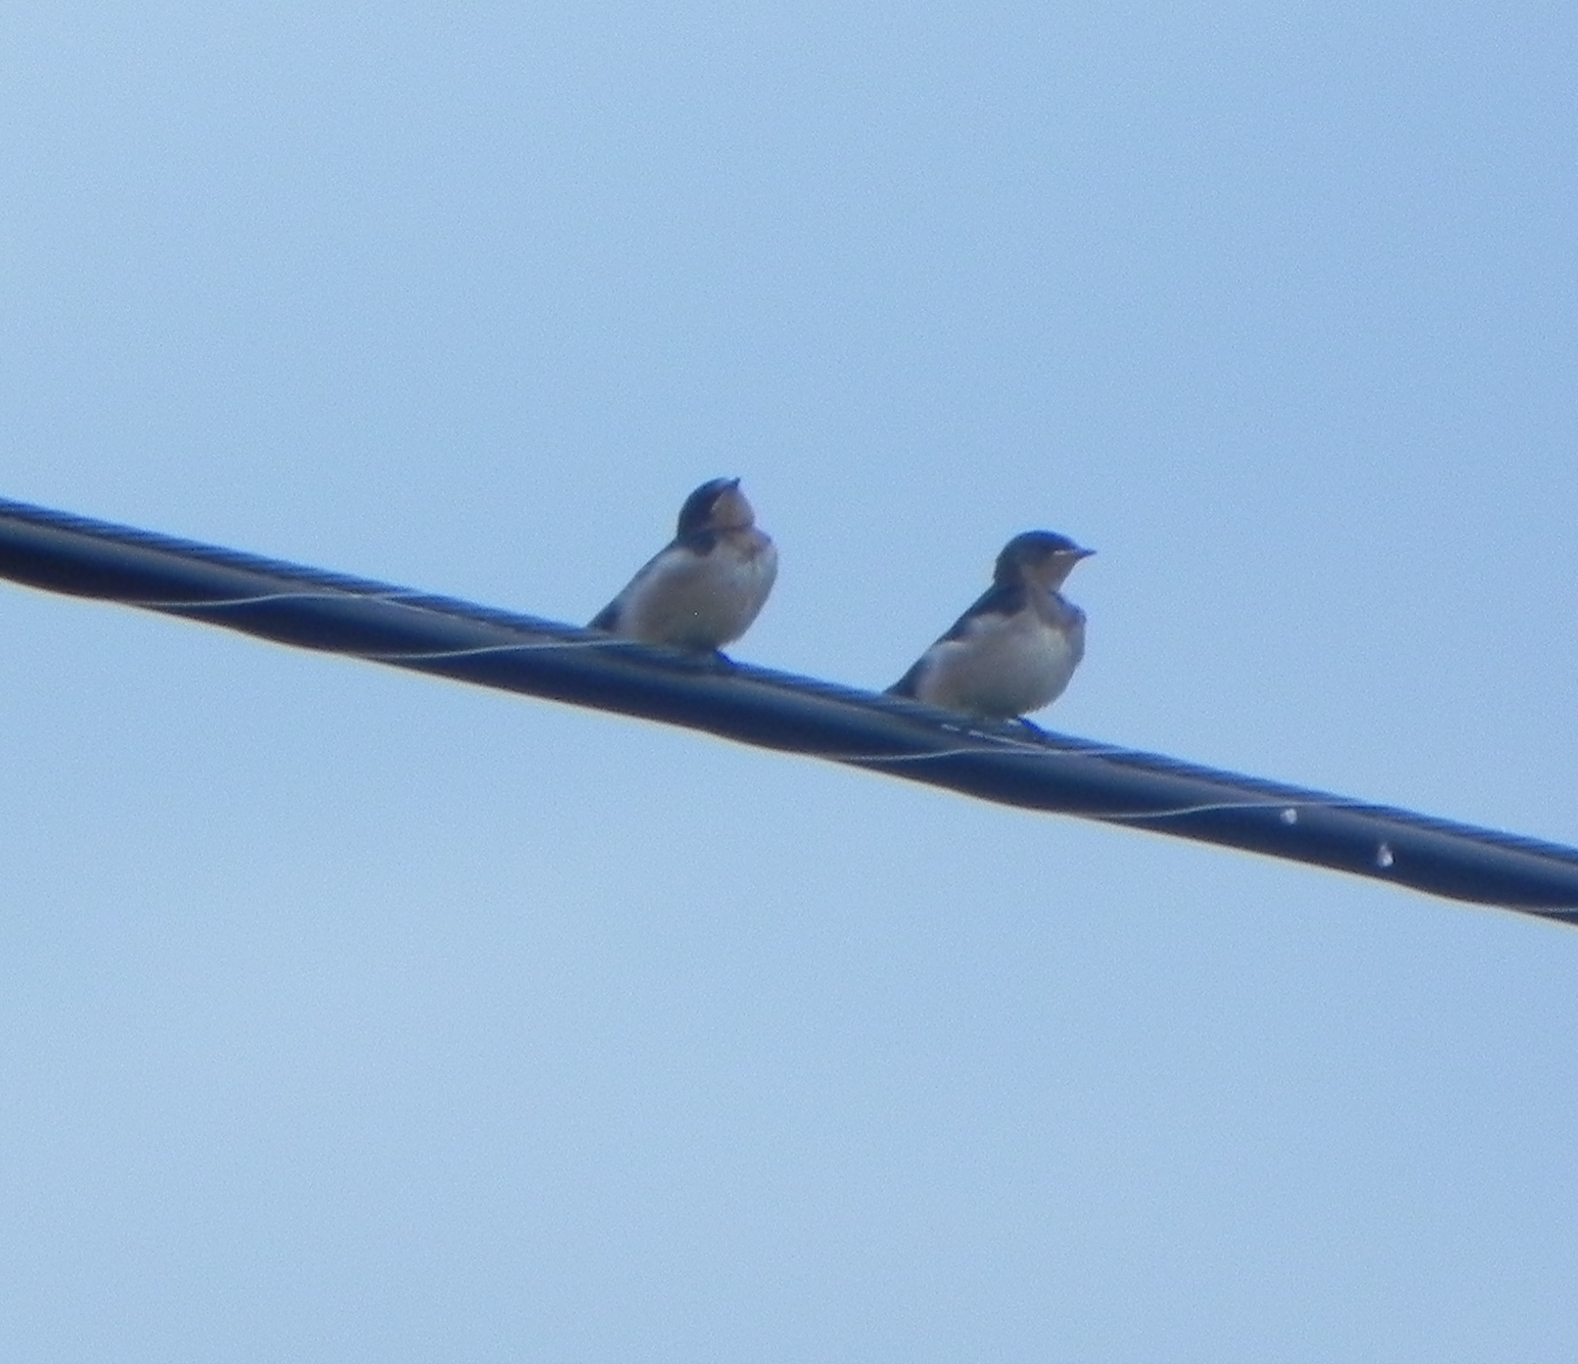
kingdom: Animalia
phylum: Chordata
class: Aves
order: Passeriformes
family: Hirundinidae
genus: Hirundo
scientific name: Hirundo rustica
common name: Barn swallow
